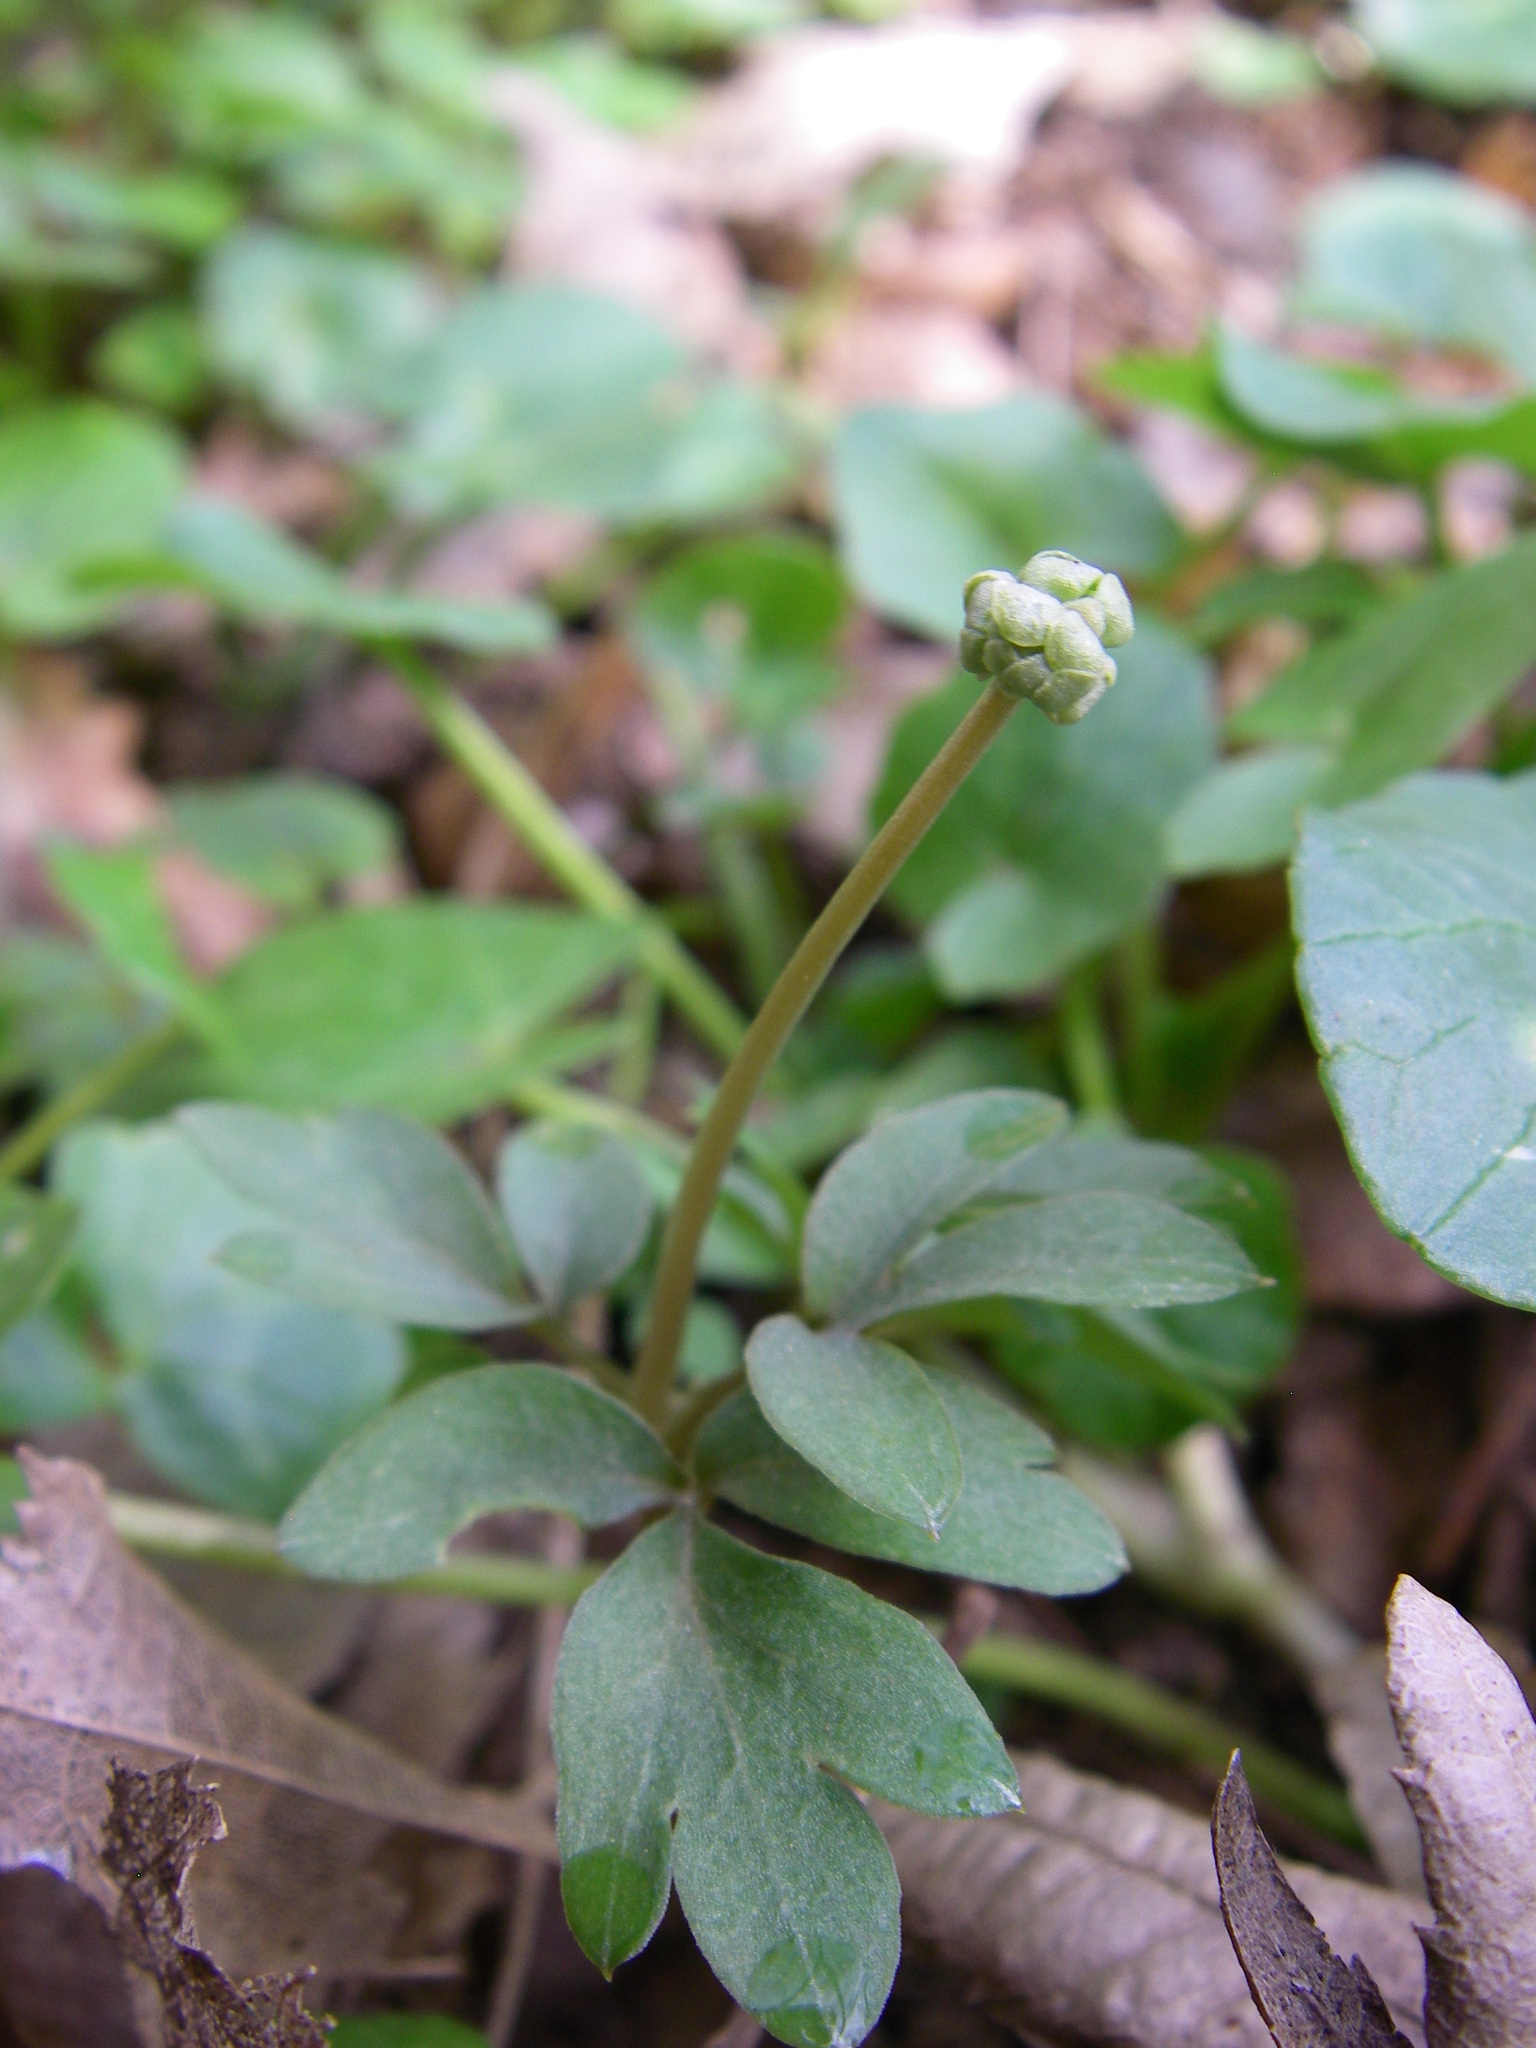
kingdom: Plantae
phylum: Tracheophyta
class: Magnoliopsida
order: Dipsacales
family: Viburnaceae
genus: Adoxa
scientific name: Adoxa moschatellina
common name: Moschatel
